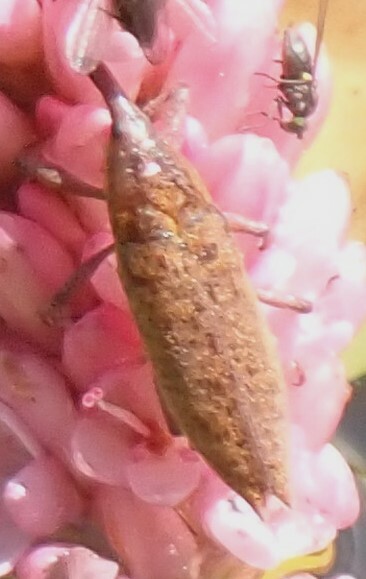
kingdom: Animalia
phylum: Arthropoda
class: Insecta
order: Coleoptera
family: Curculionidae
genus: Lixus
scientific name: Lixus rubellus
